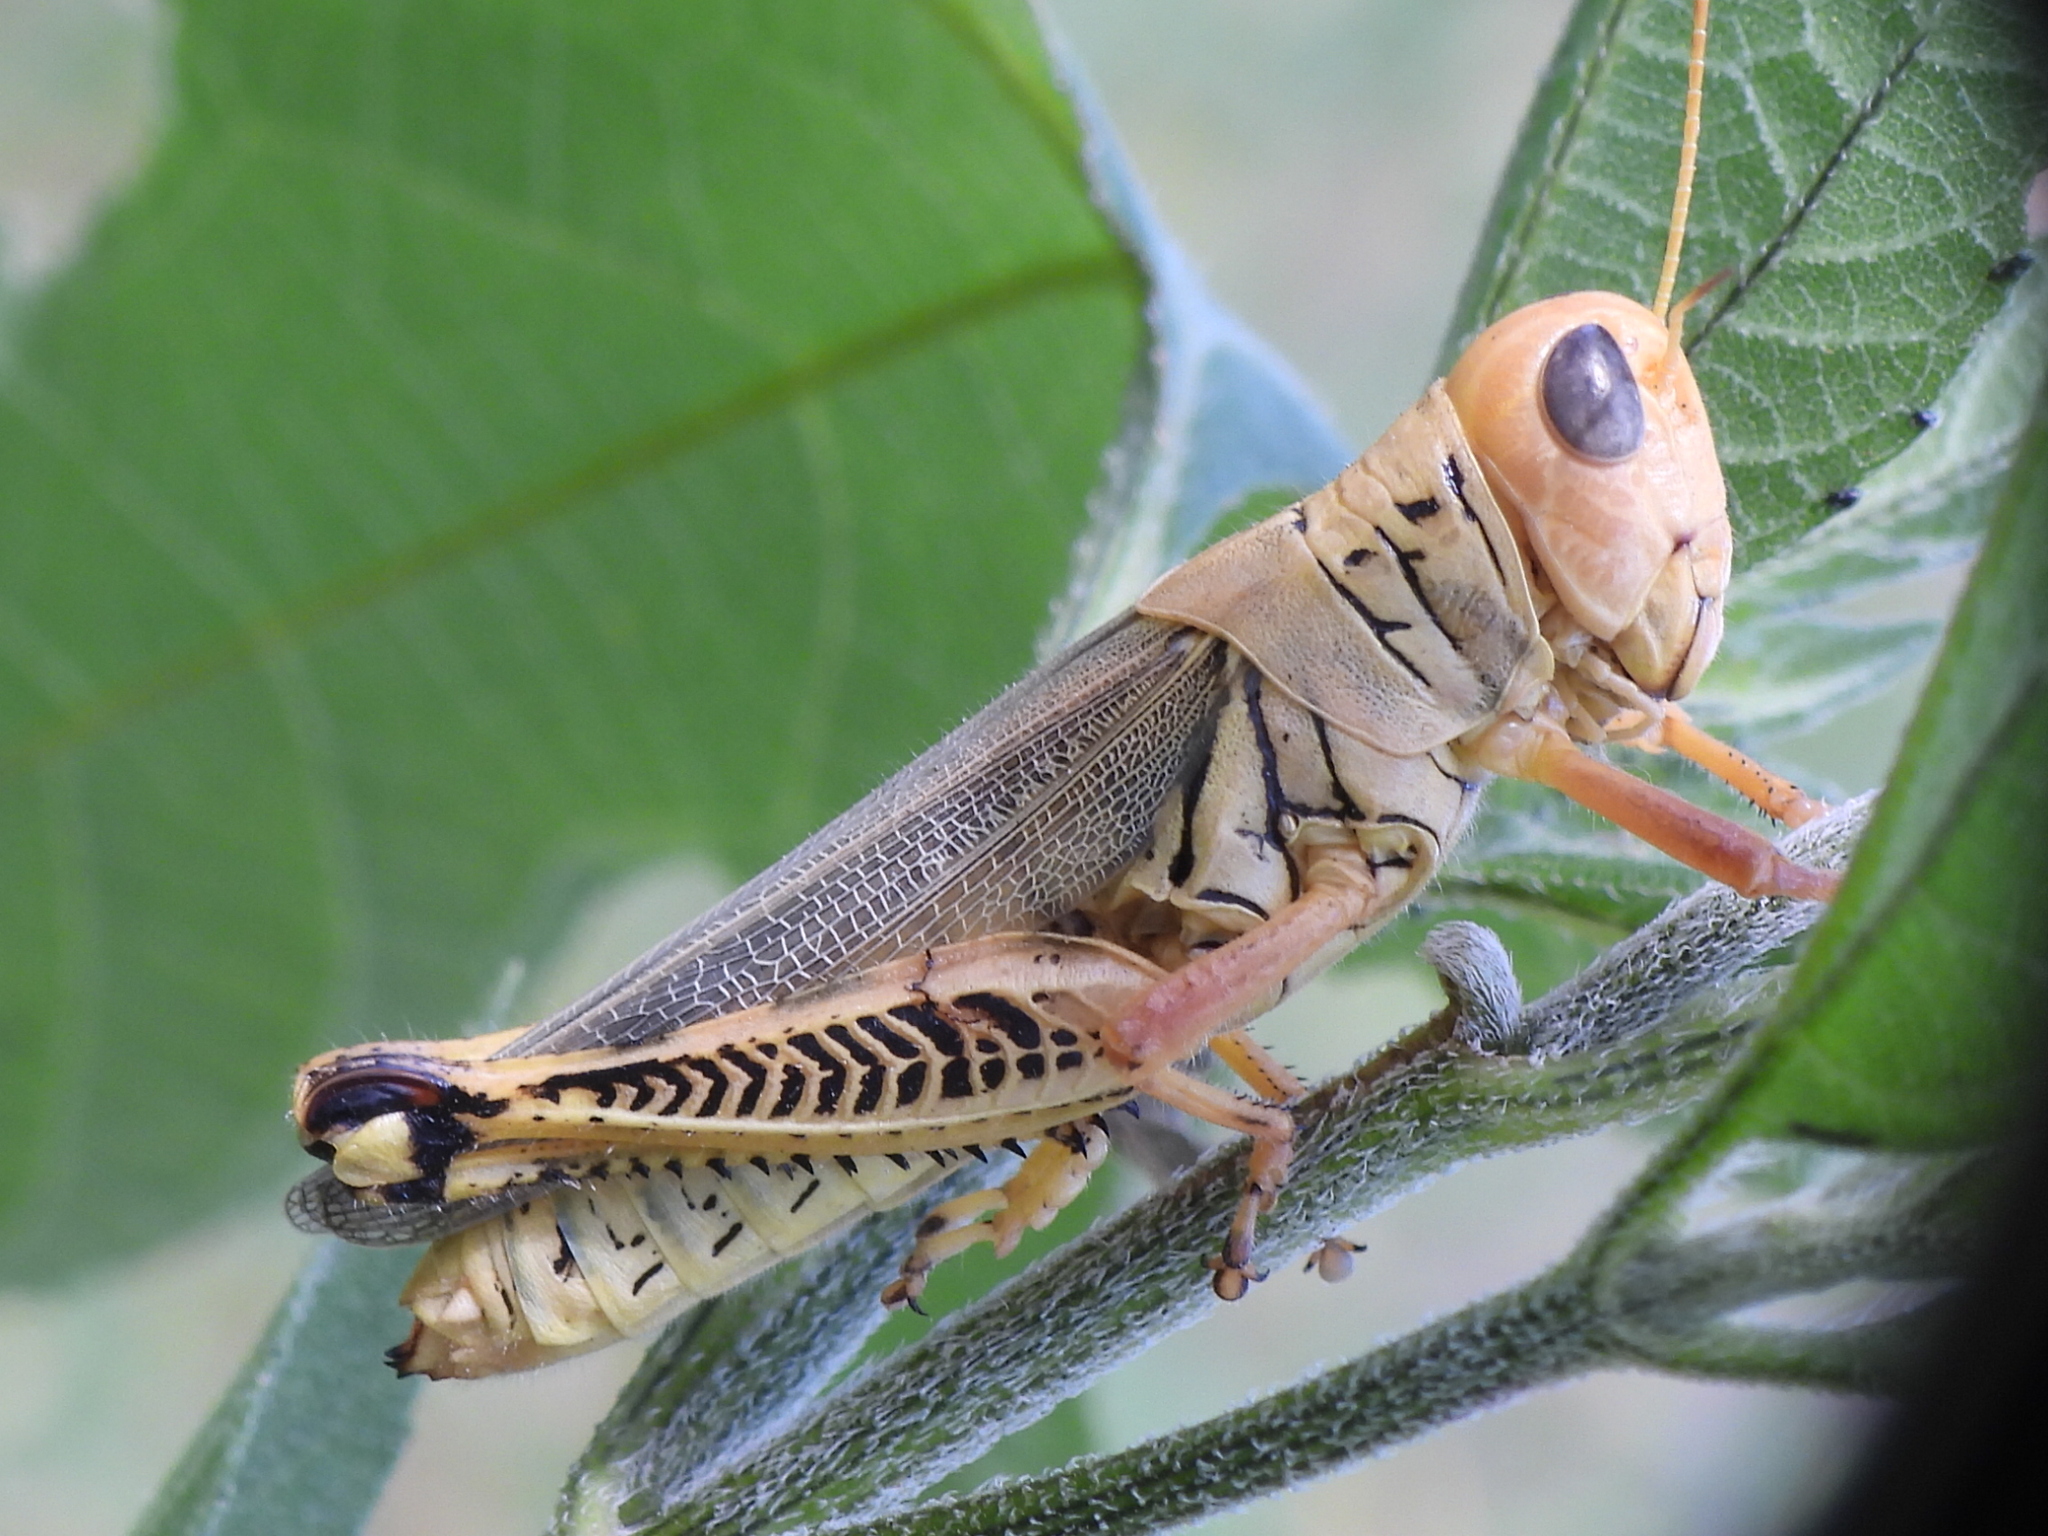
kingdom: Animalia
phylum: Arthropoda
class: Insecta
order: Orthoptera
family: Acrididae
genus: Melanoplus
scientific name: Melanoplus differentialis
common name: Differential grasshopper
